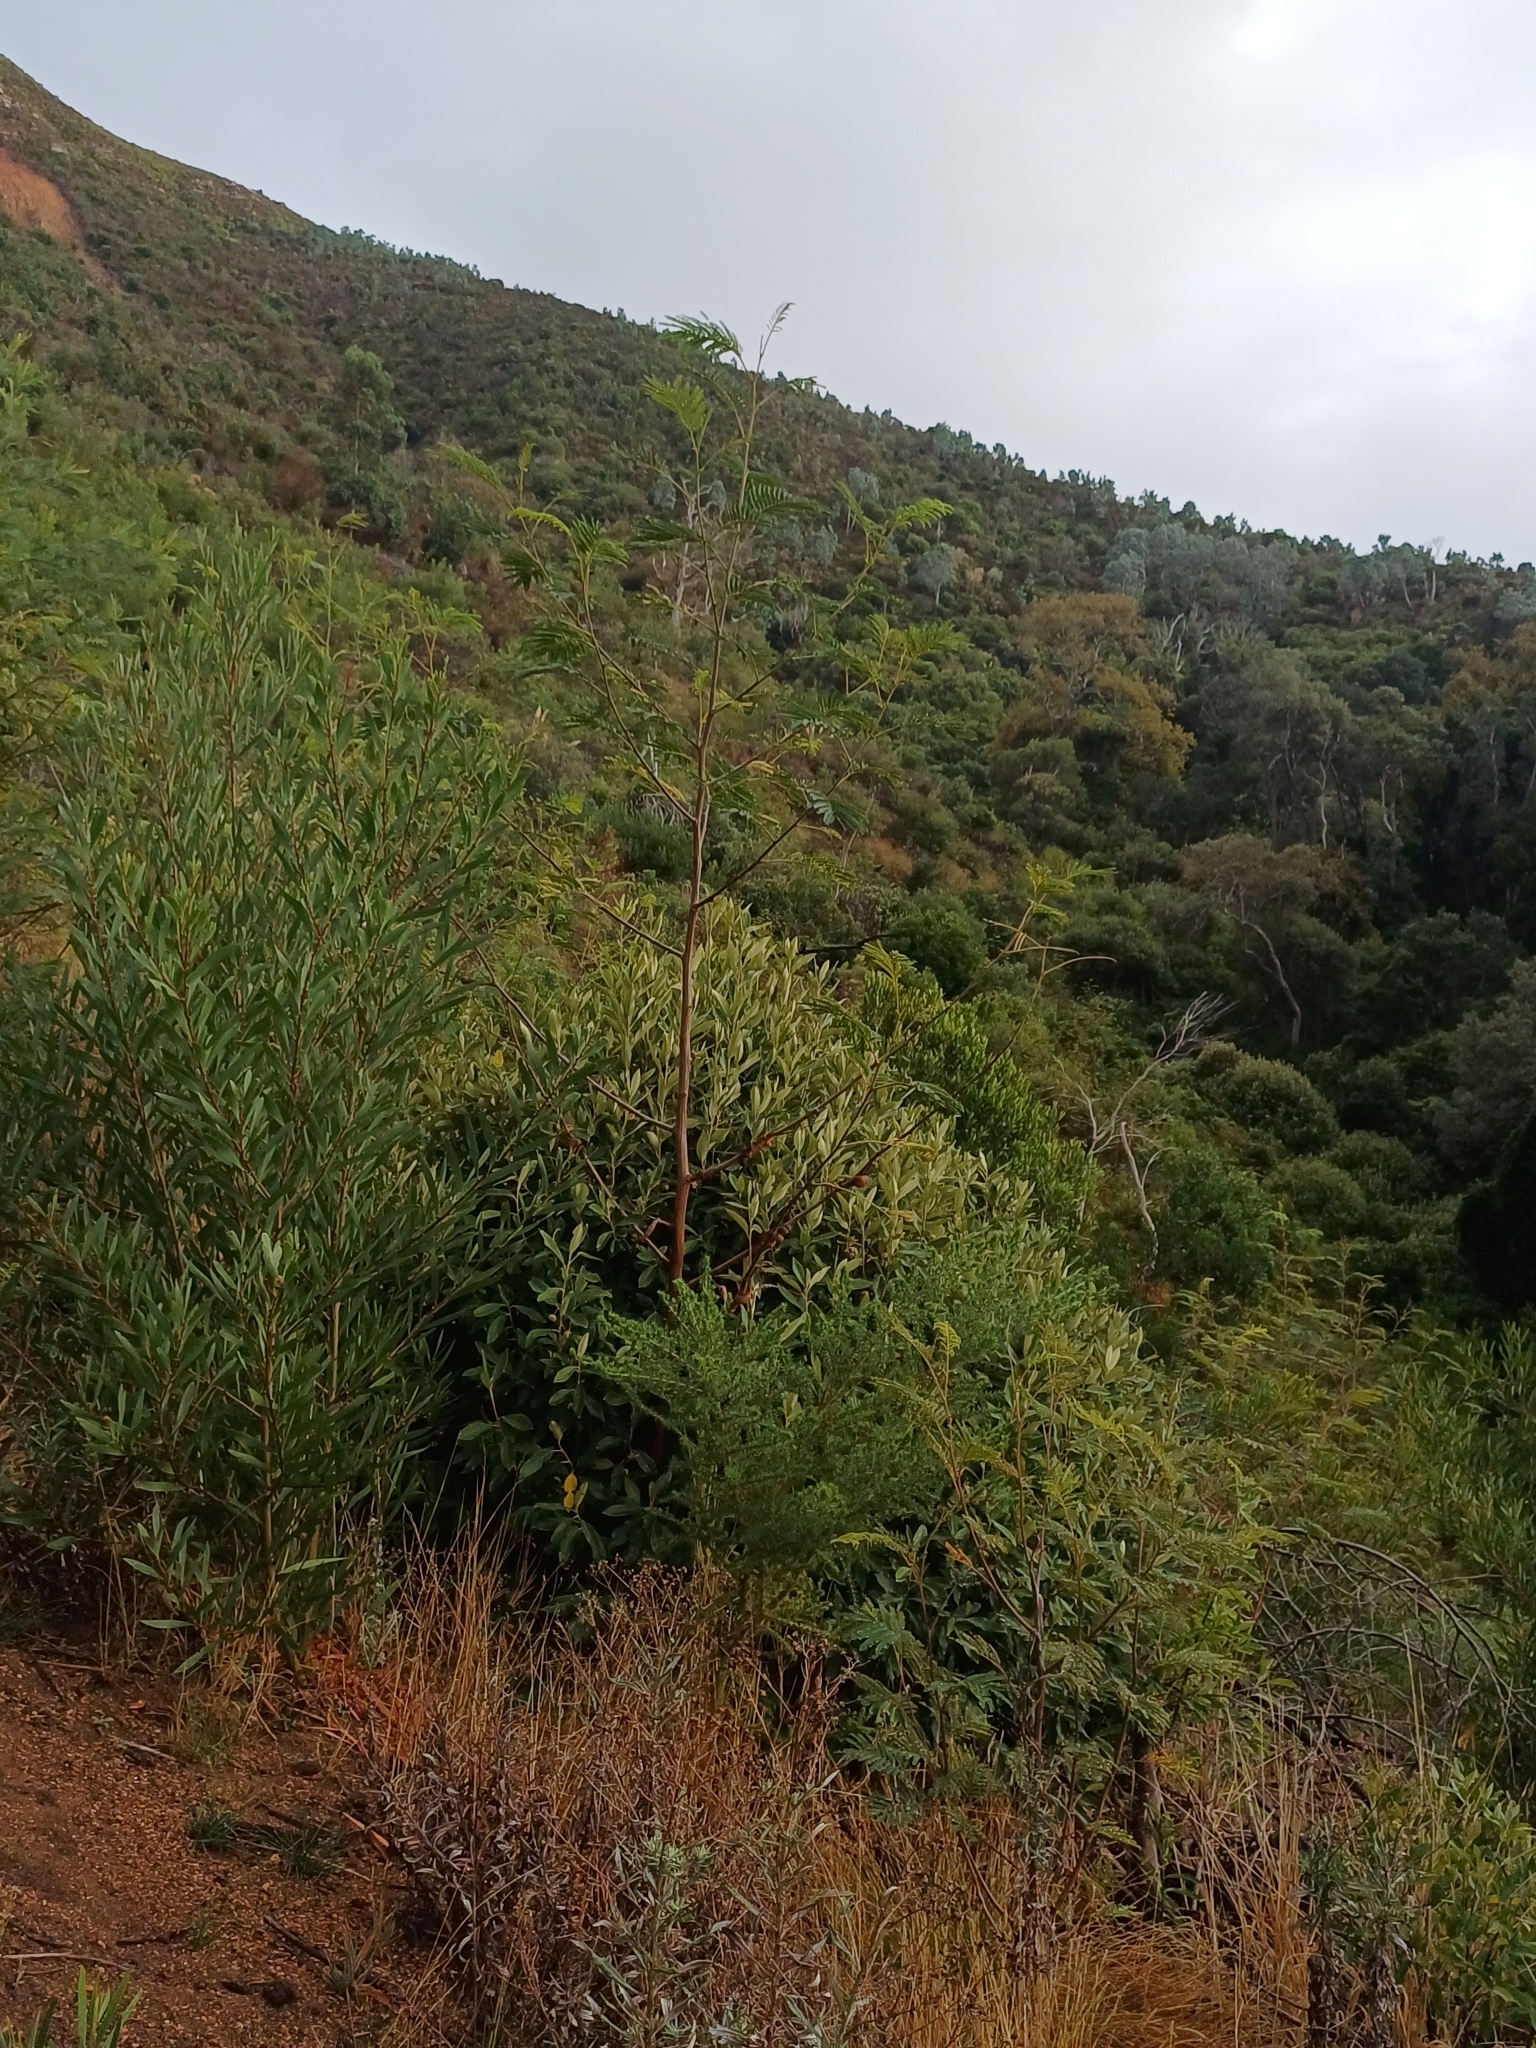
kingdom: Plantae
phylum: Tracheophyta
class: Magnoliopsida
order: Fabales
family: Fabaceae
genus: Acacia
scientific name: Acacia cyclops
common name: Coastal wattle
